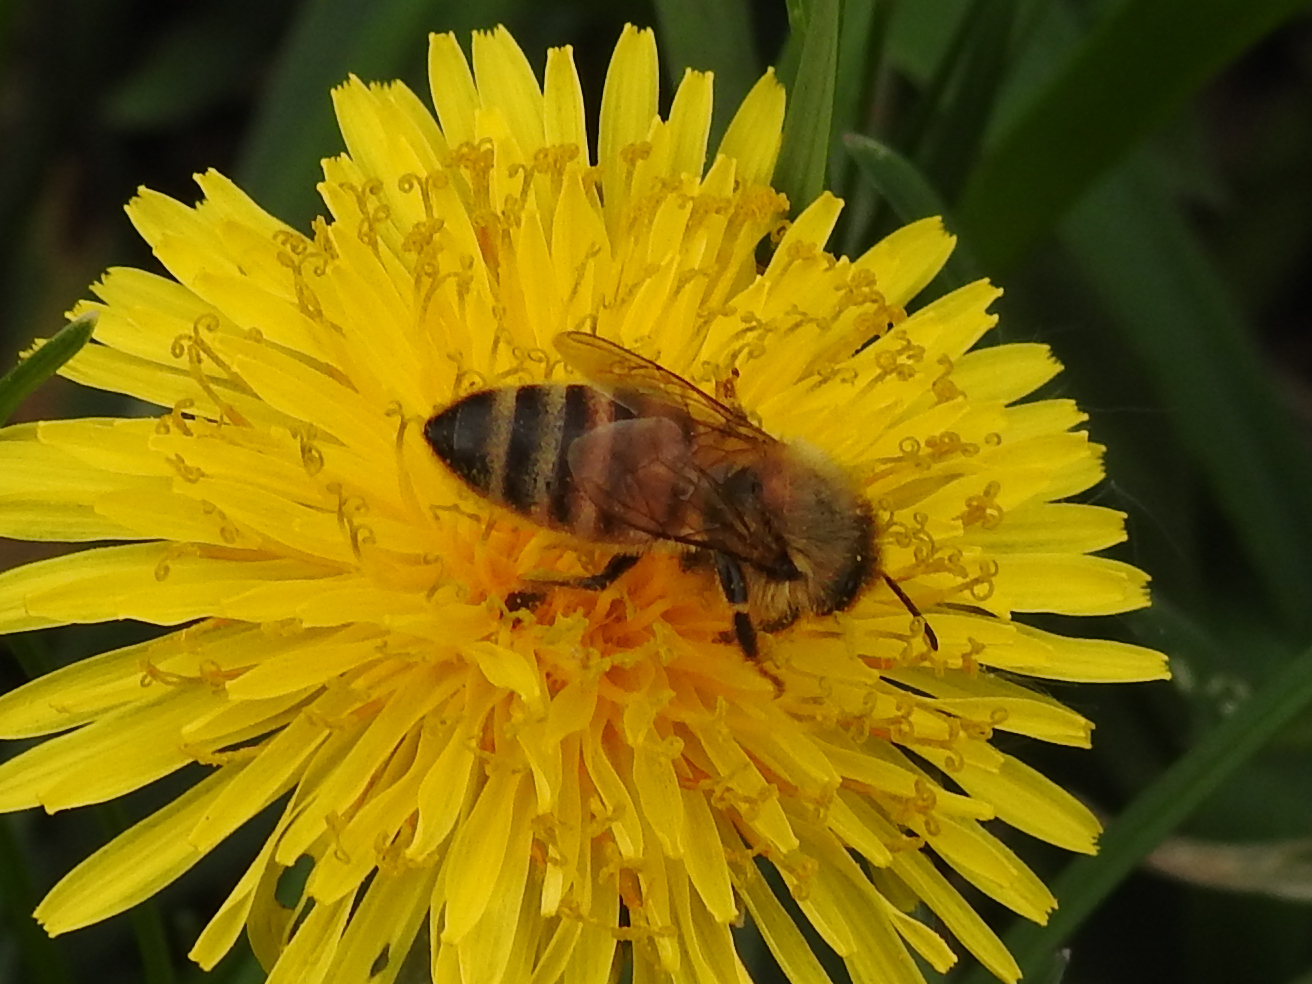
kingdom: Animalia
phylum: Arthropoda
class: Insecta
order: Hymenoptera
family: Apidae
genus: Apis
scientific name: Apis mellifera
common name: Honey bee
